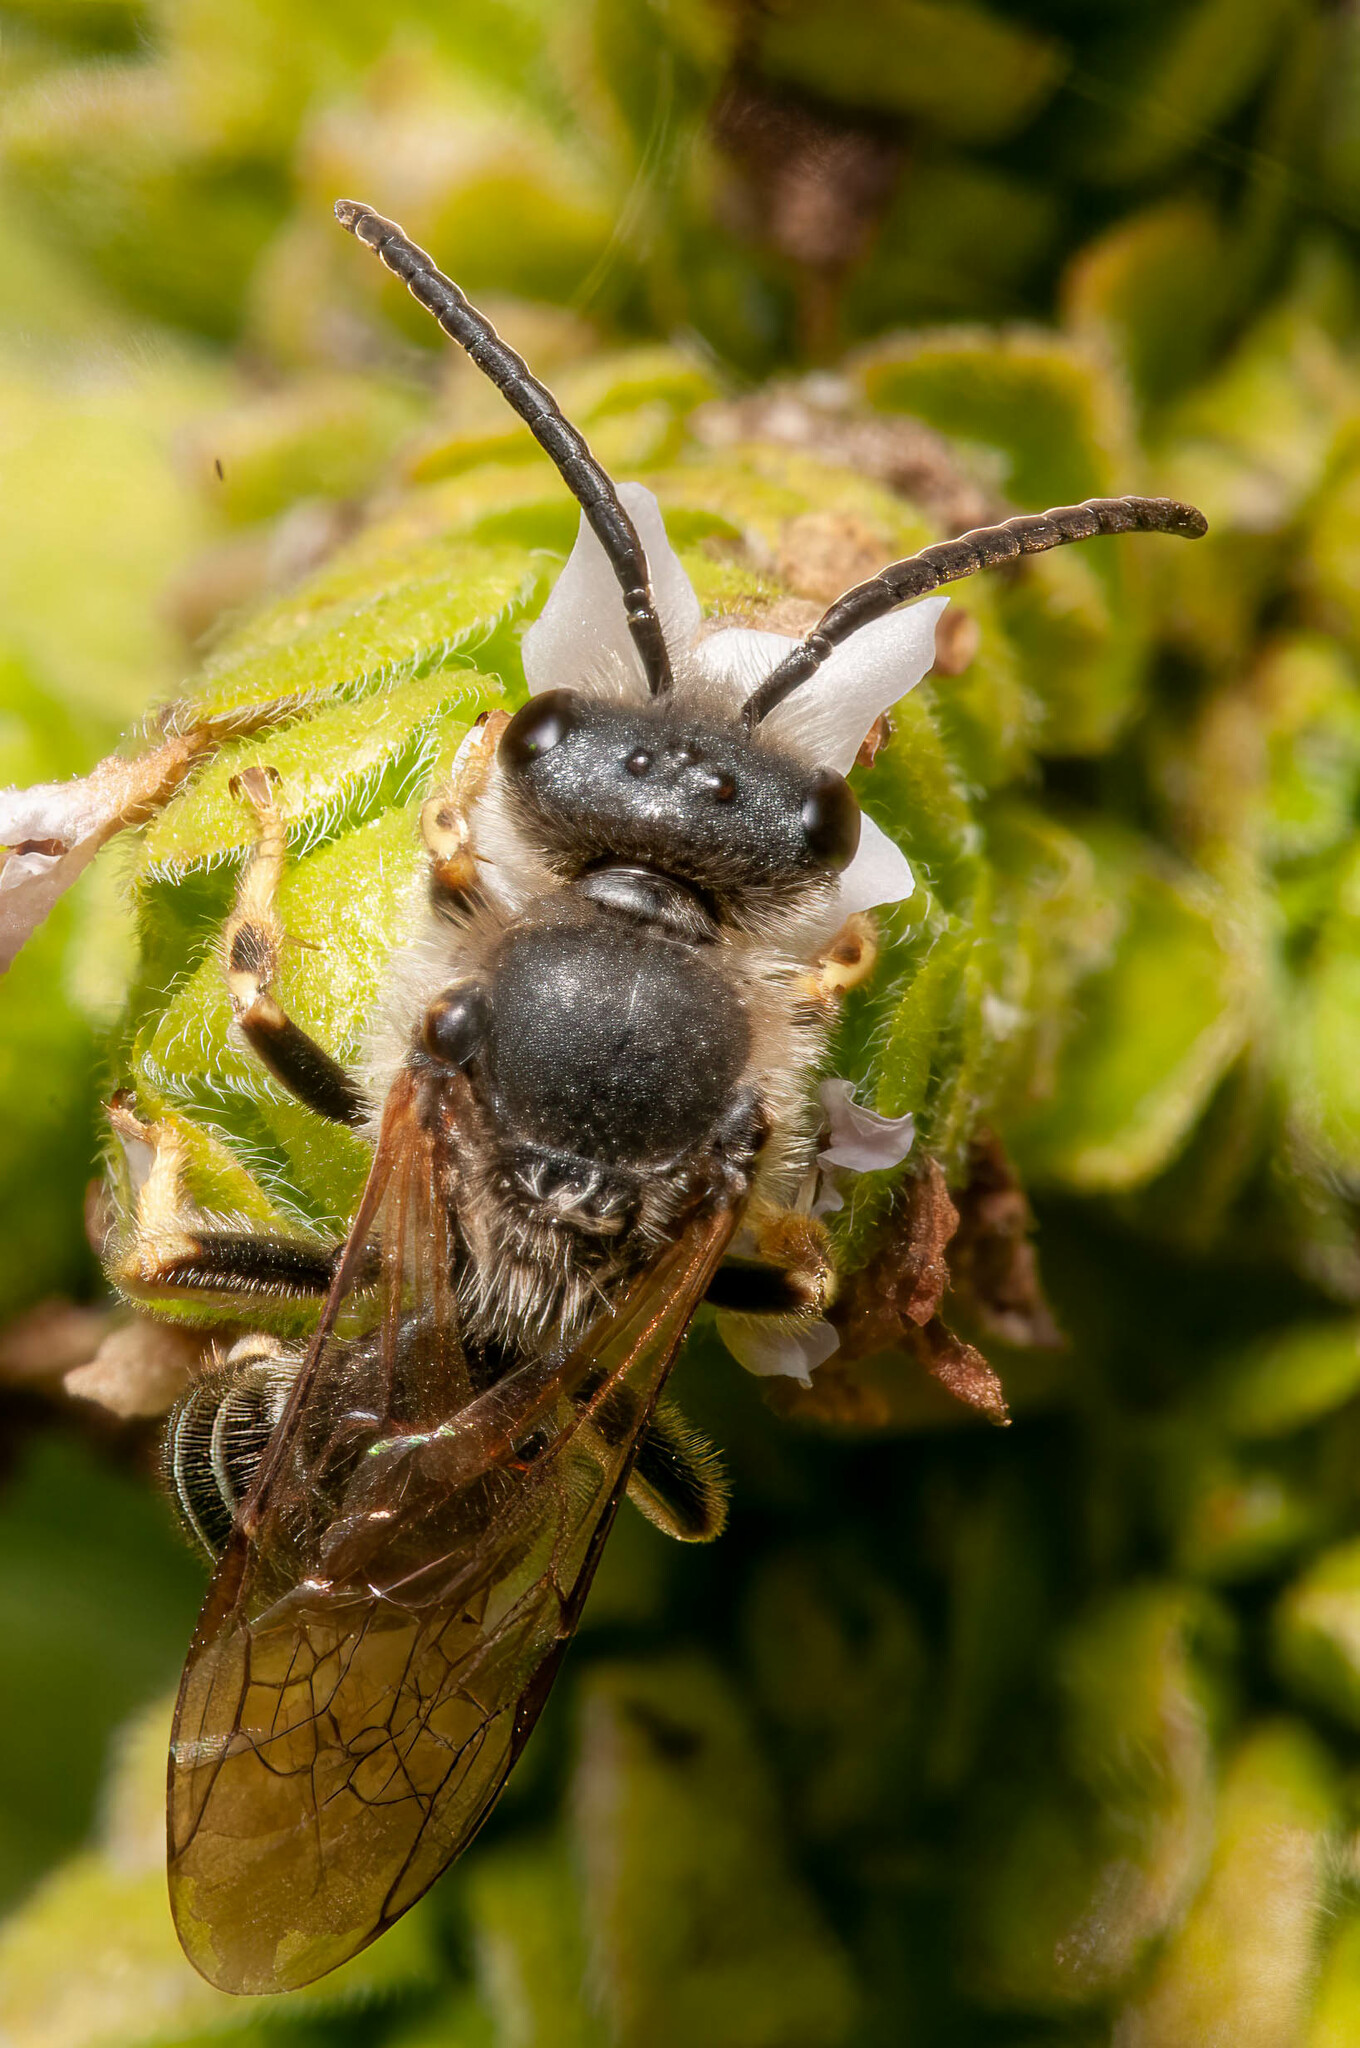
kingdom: Animalia
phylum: Arthropoda
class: Insecta
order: Hymenoptera
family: Halictidae
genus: Halictus
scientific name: Halictus rubicundus
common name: Orange-legged furrow bee
